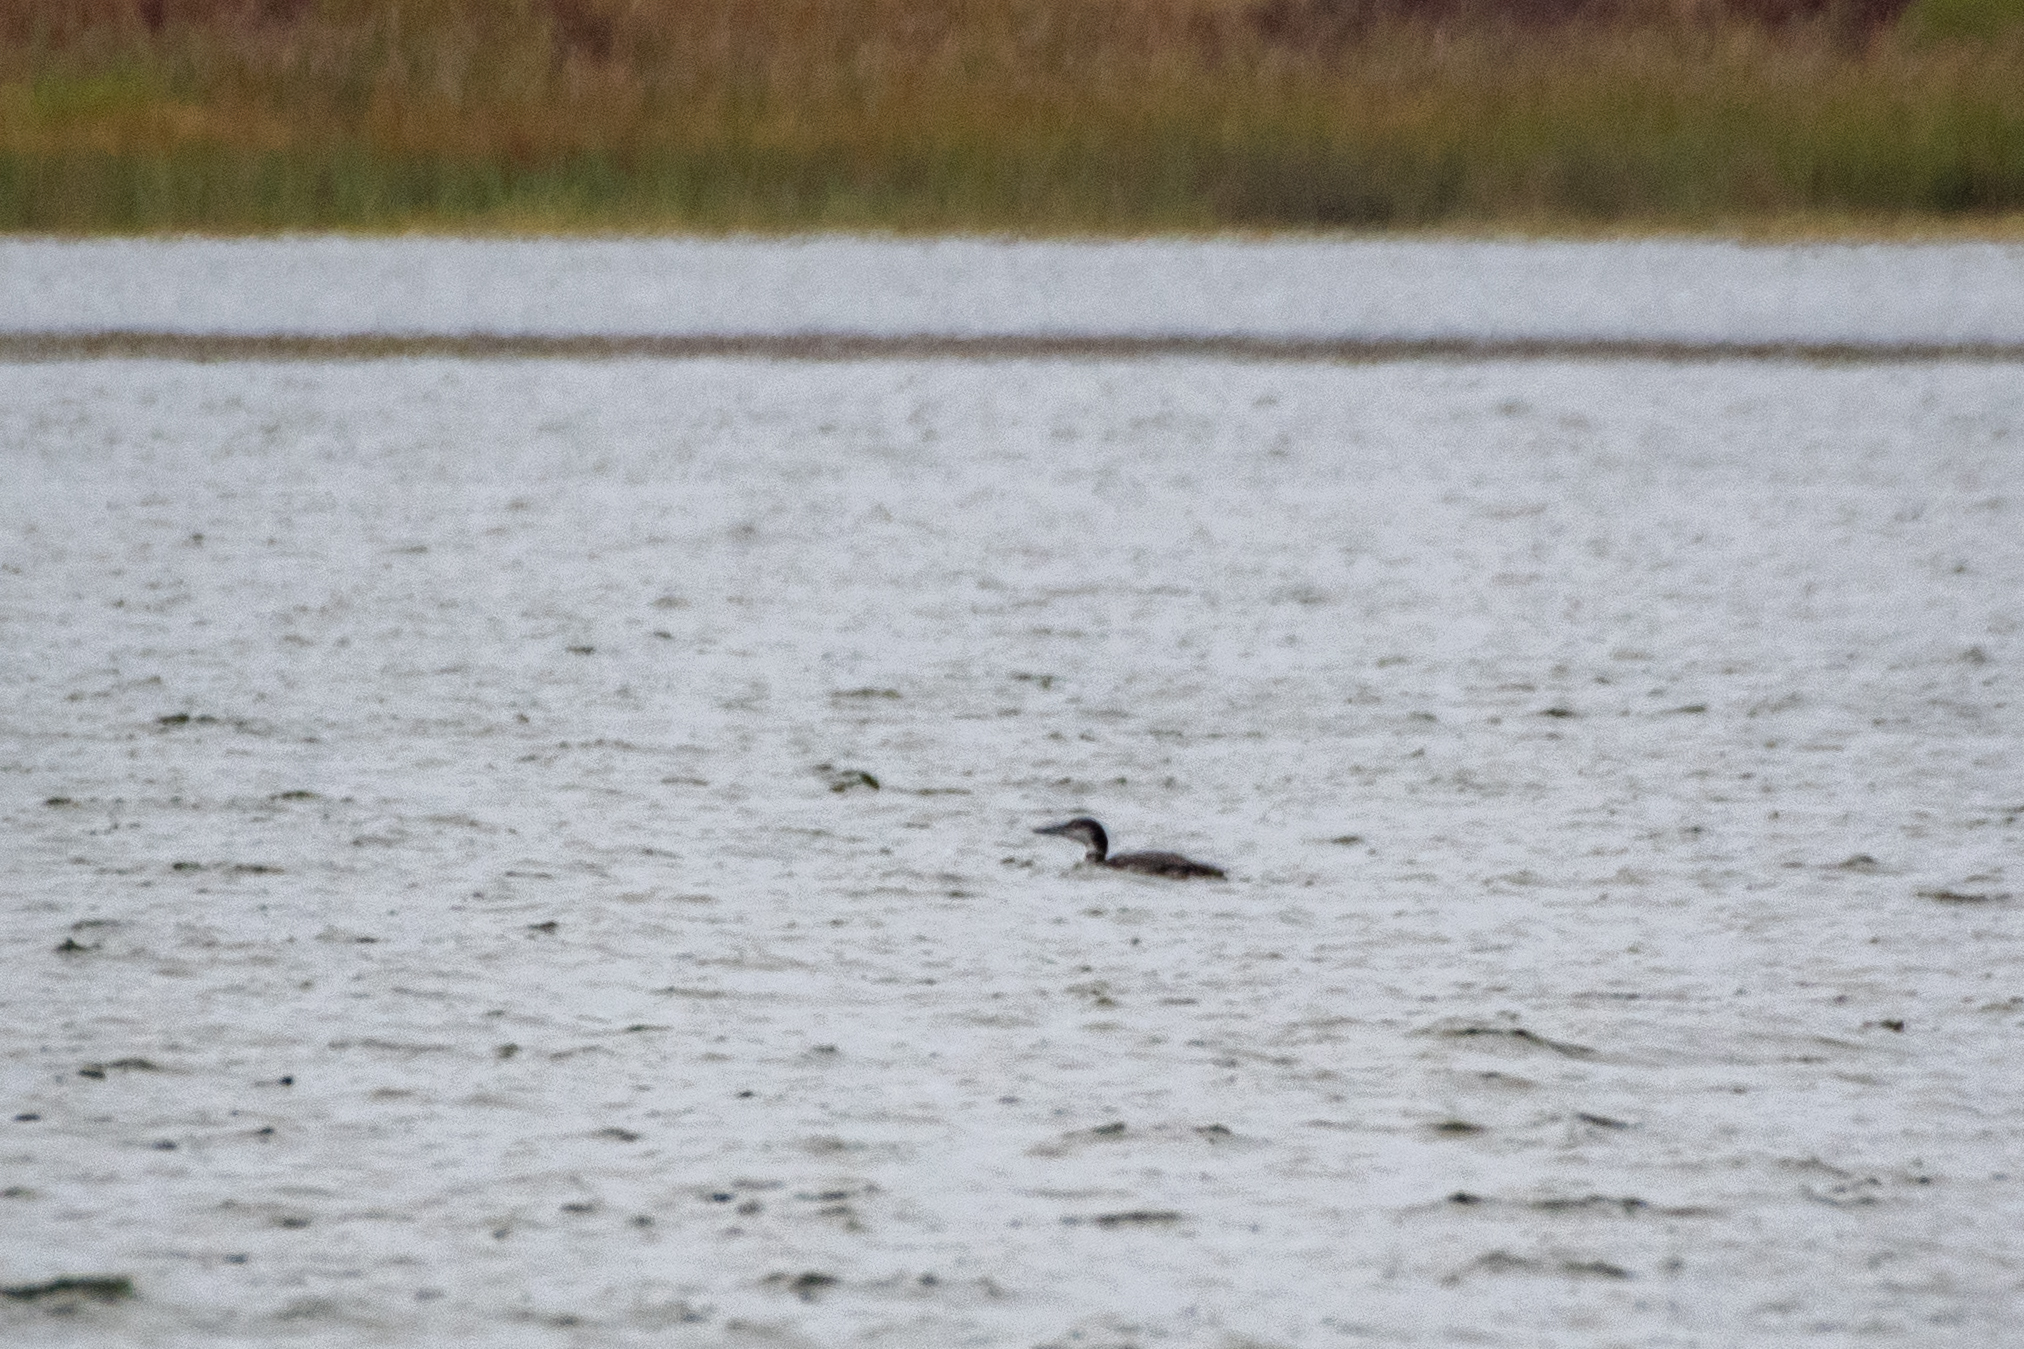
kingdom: Animalia
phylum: Chordata
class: Aves
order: Gaviiformes
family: Gaviidae
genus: Gavia
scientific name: Gavia immer
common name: Common loon
